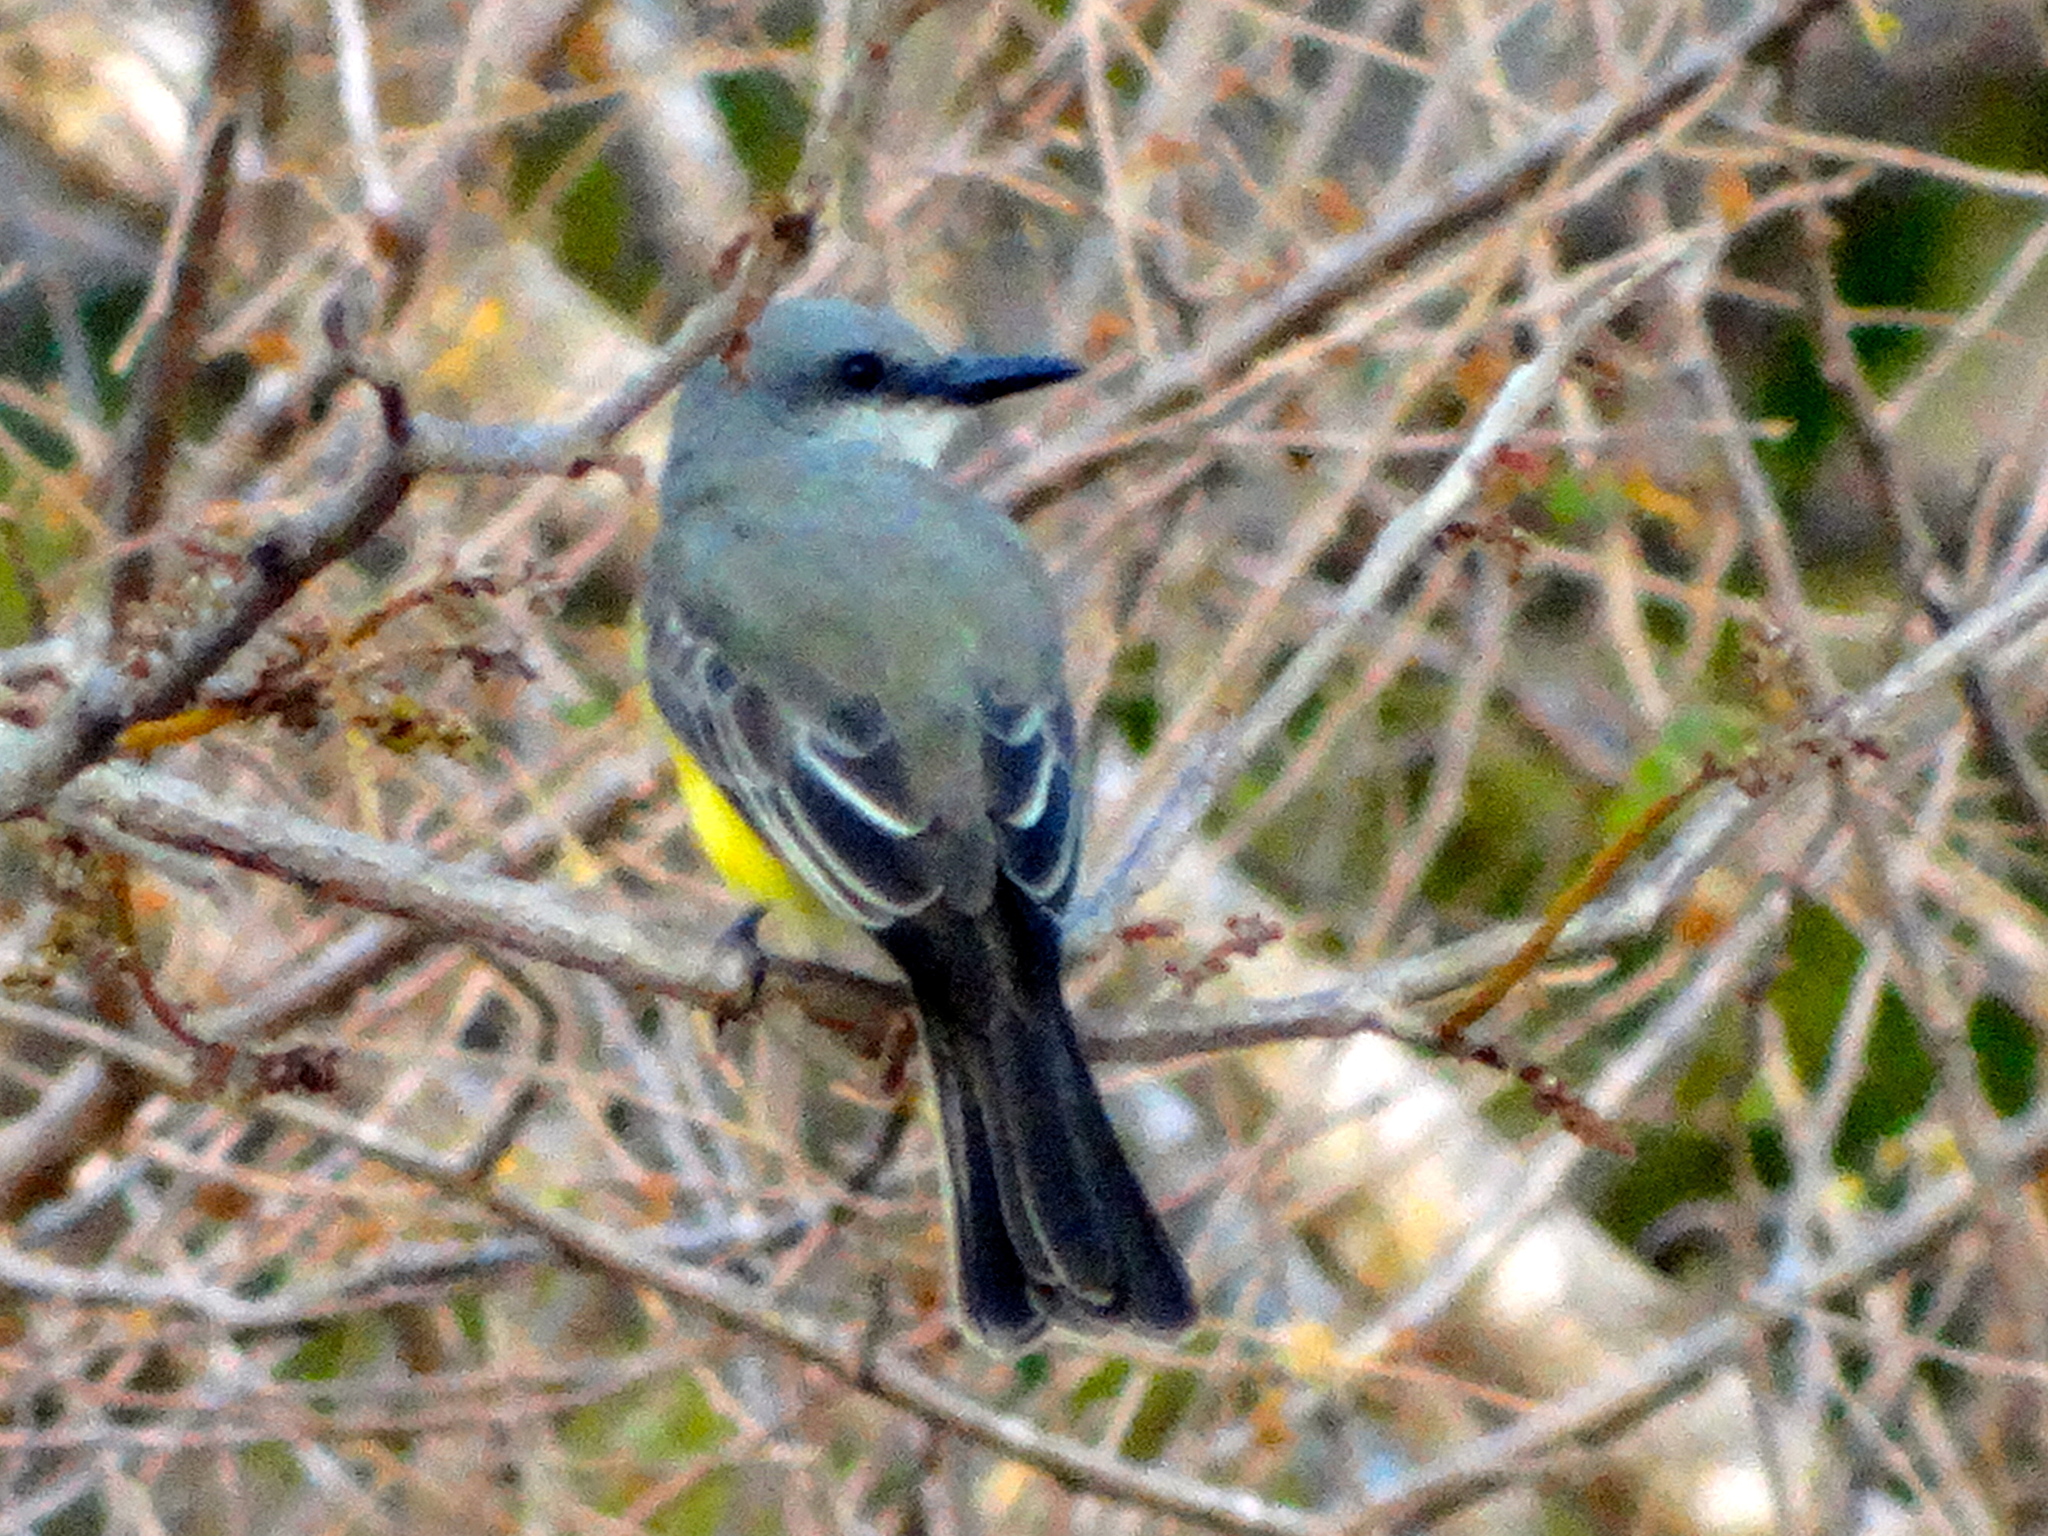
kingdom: Animalia
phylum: Chordata
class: Aves
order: Passeriformes
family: Tyrannidae
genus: Tyrannus
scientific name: Tyrannus melancholicus
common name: Tropical kingbird
